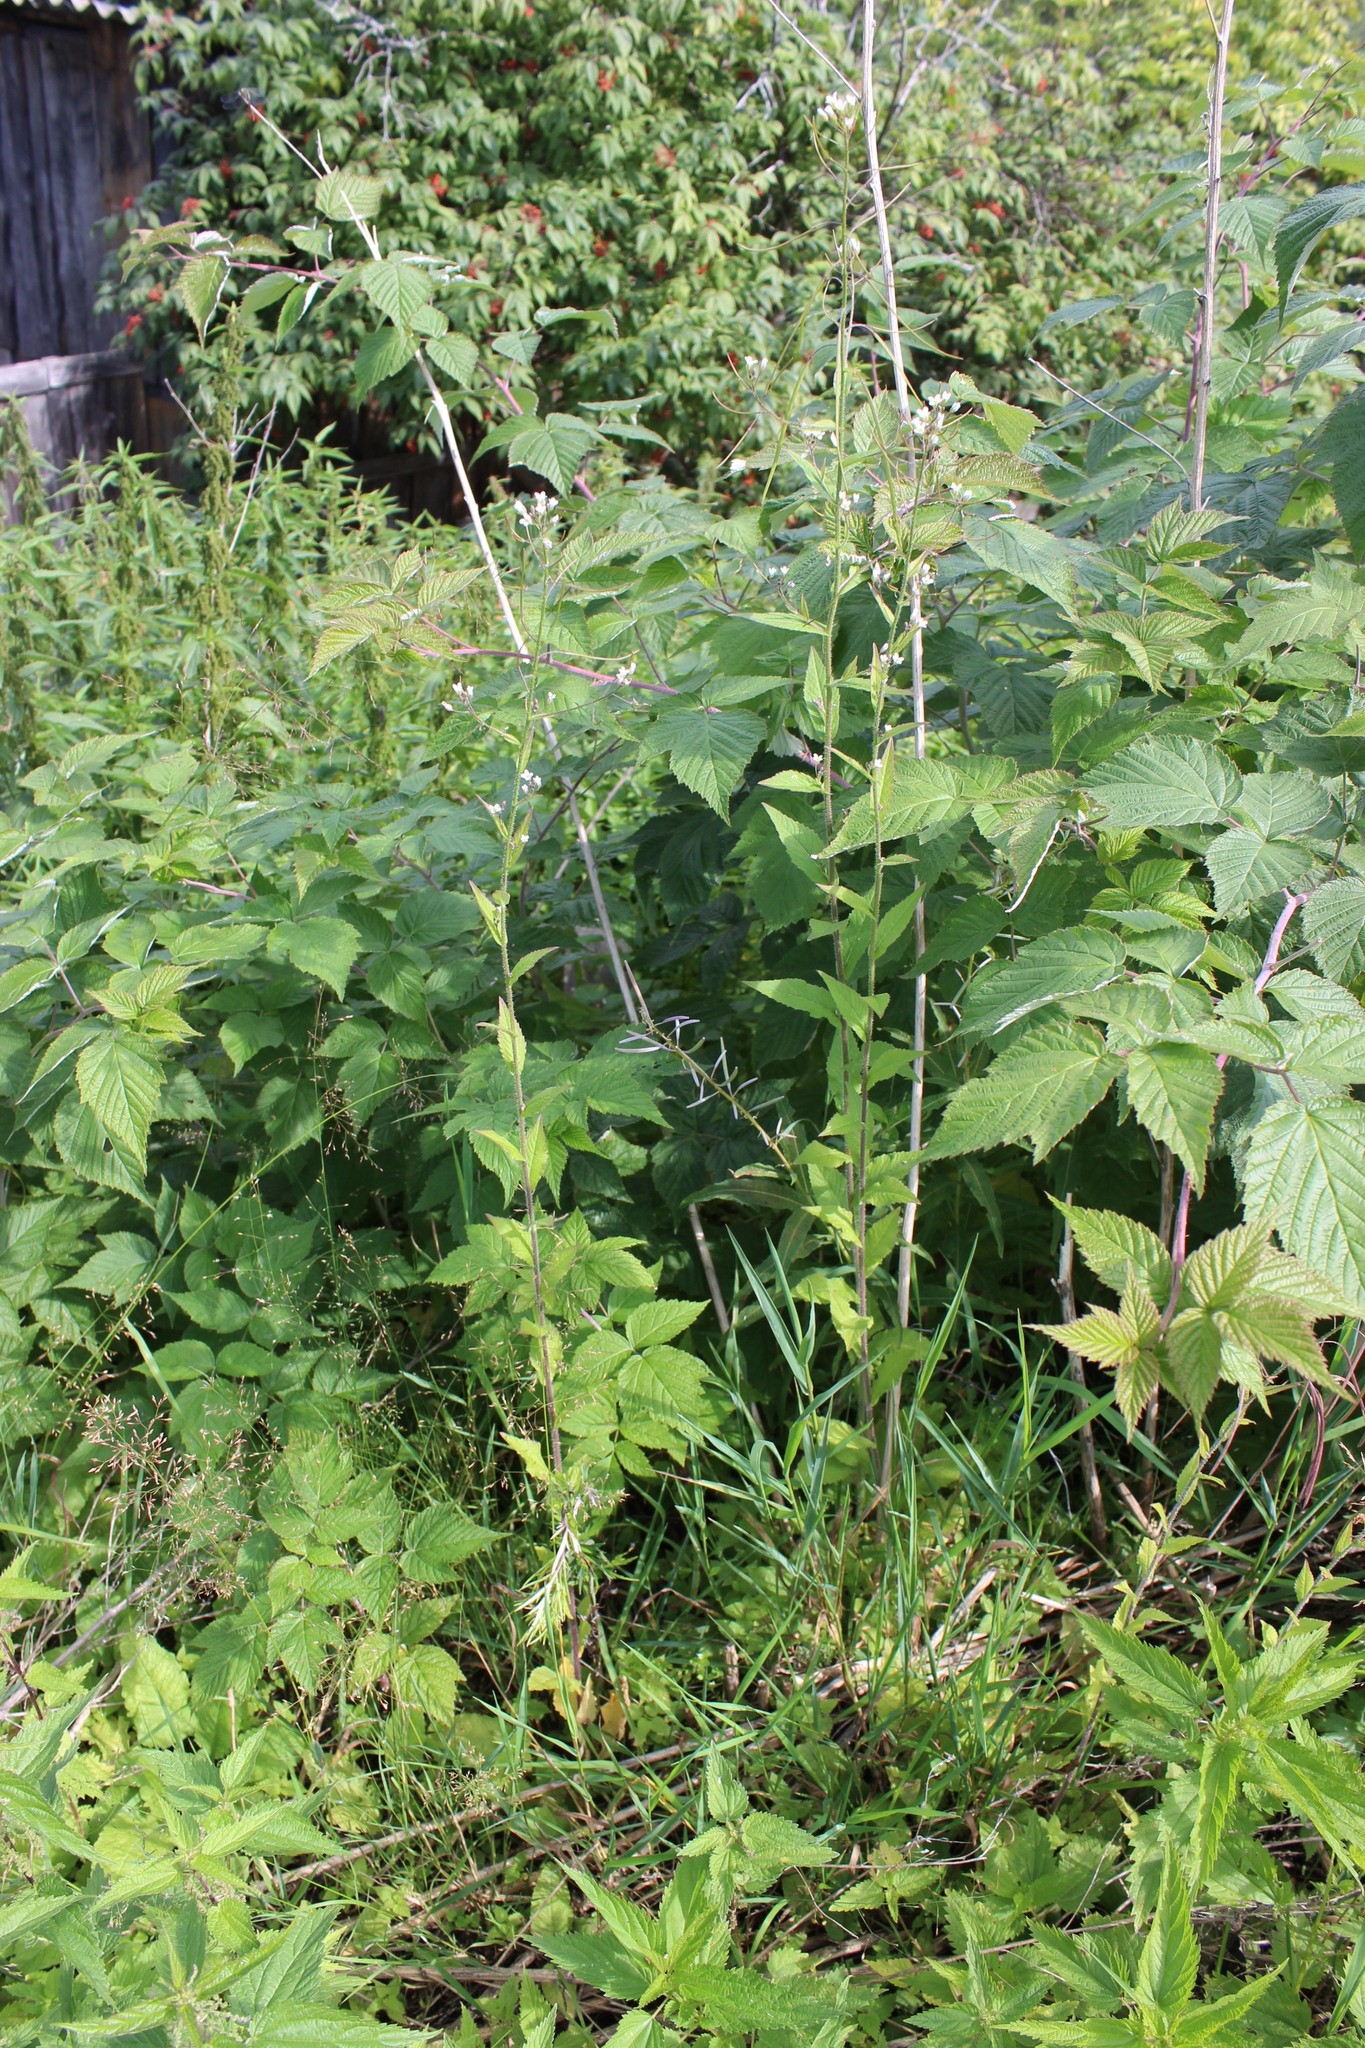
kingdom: Plantae
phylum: Tracheophyta
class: Magnoliopsida
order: Brassicales
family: Brassicaceae
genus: Catolobus
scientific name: Catolobus pendulus
